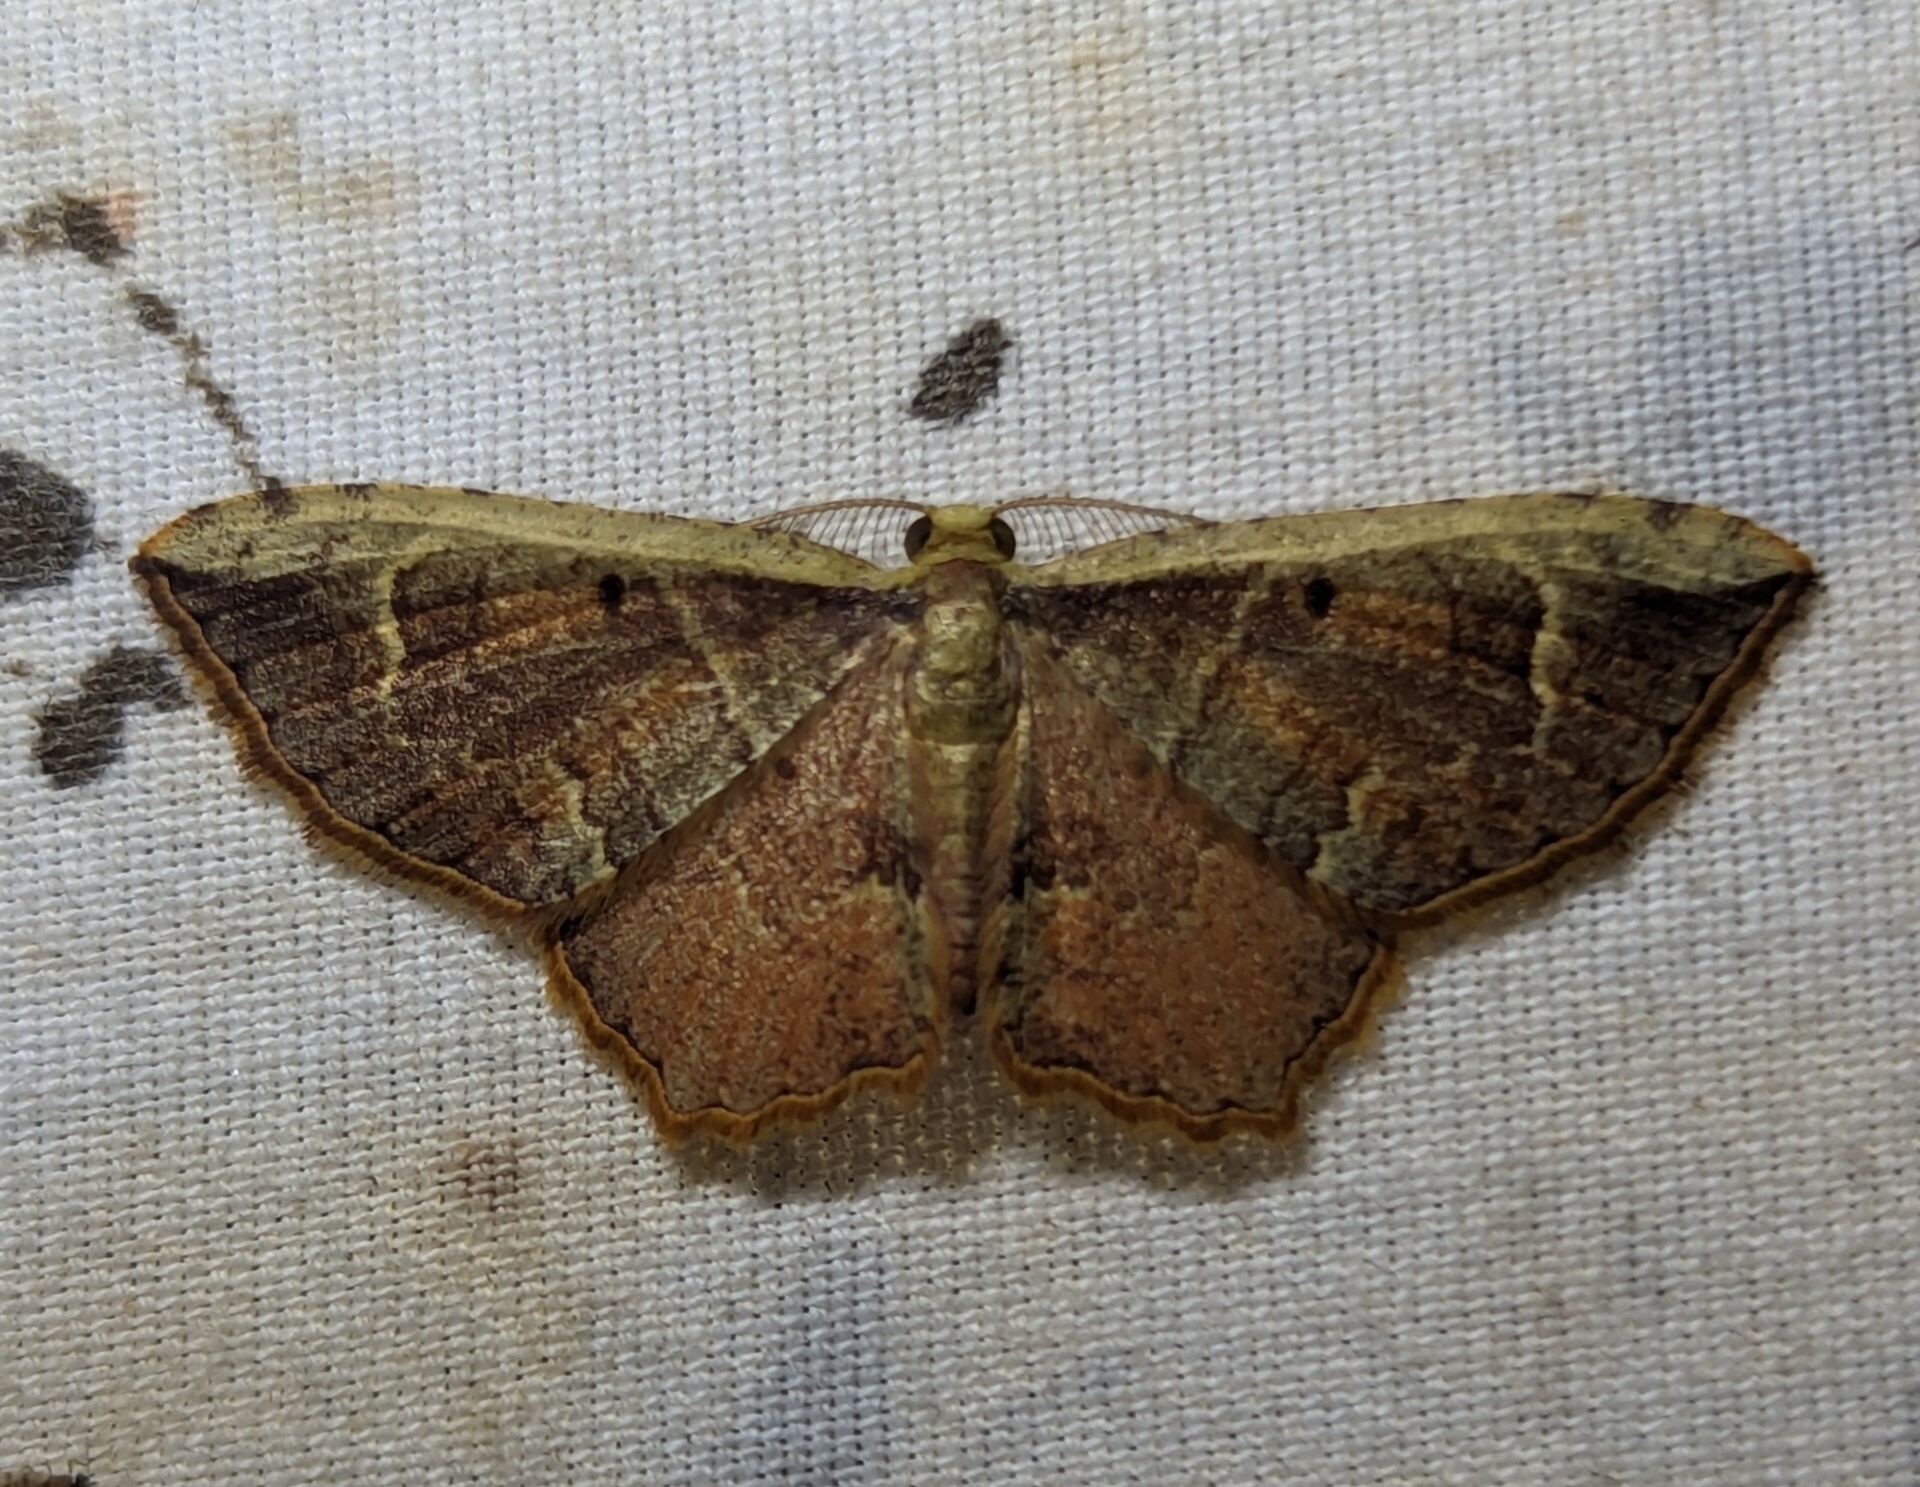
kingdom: Animalia
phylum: Arthropoda
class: Insecta
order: Lepidoptera
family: Geometridae
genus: Eois
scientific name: Eois pallidicosta
